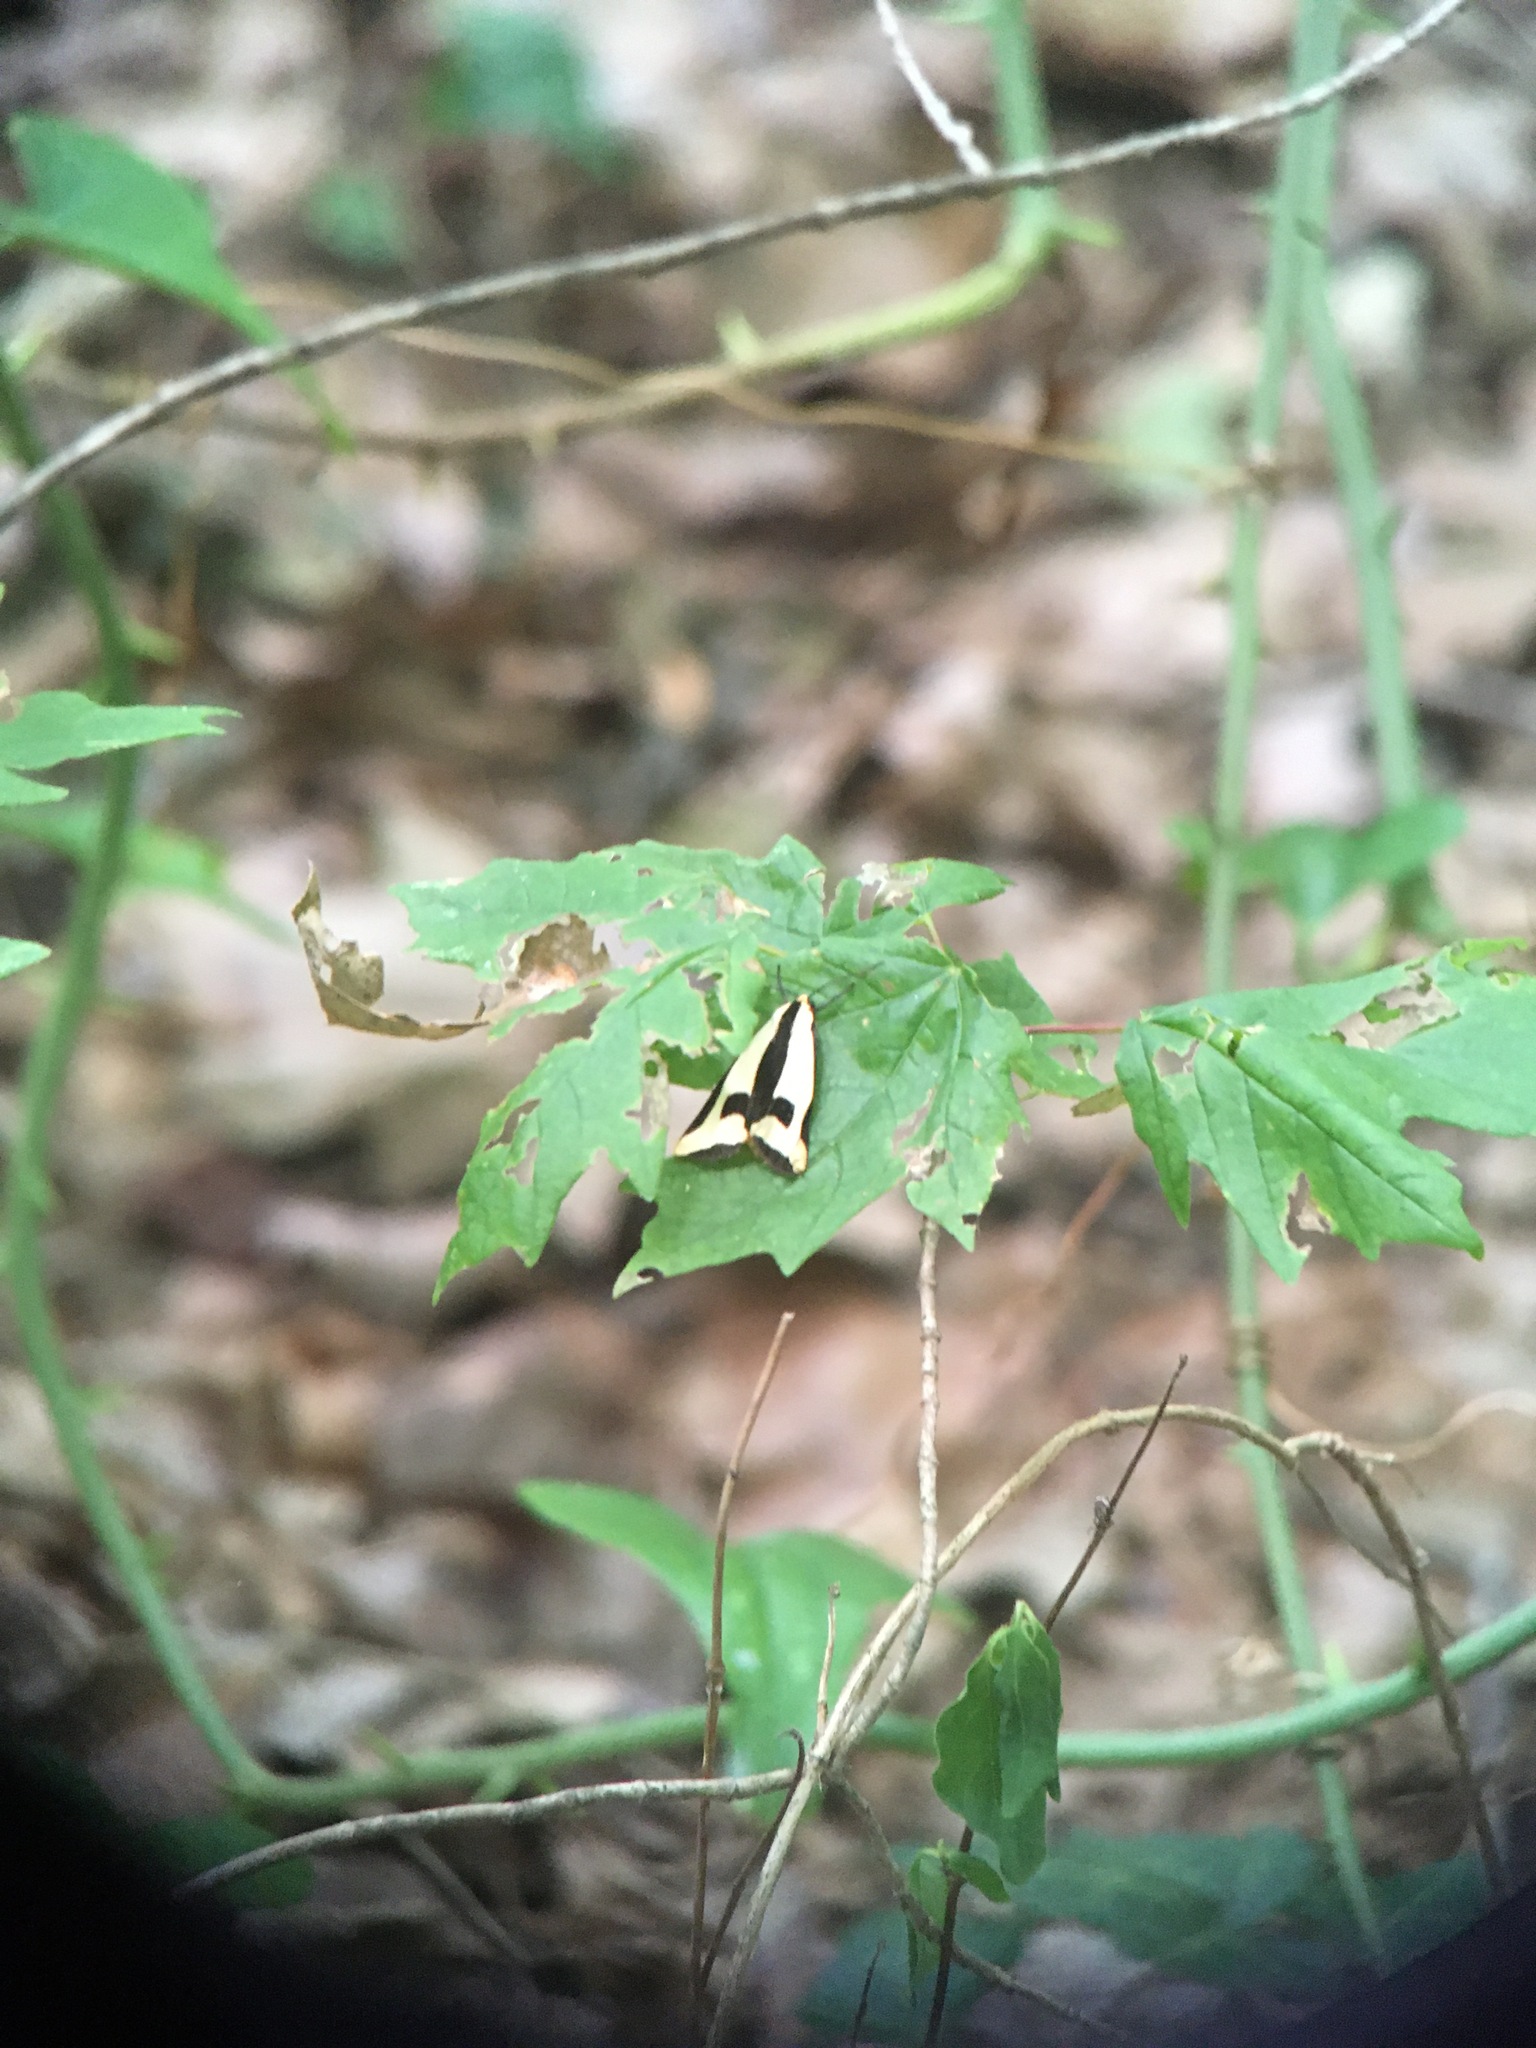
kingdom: Animalia
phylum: Arthropoda
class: Insecta
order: Lepidoptera
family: Erebidae
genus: Haploa
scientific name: Haploa clymene
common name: Clymene moth
